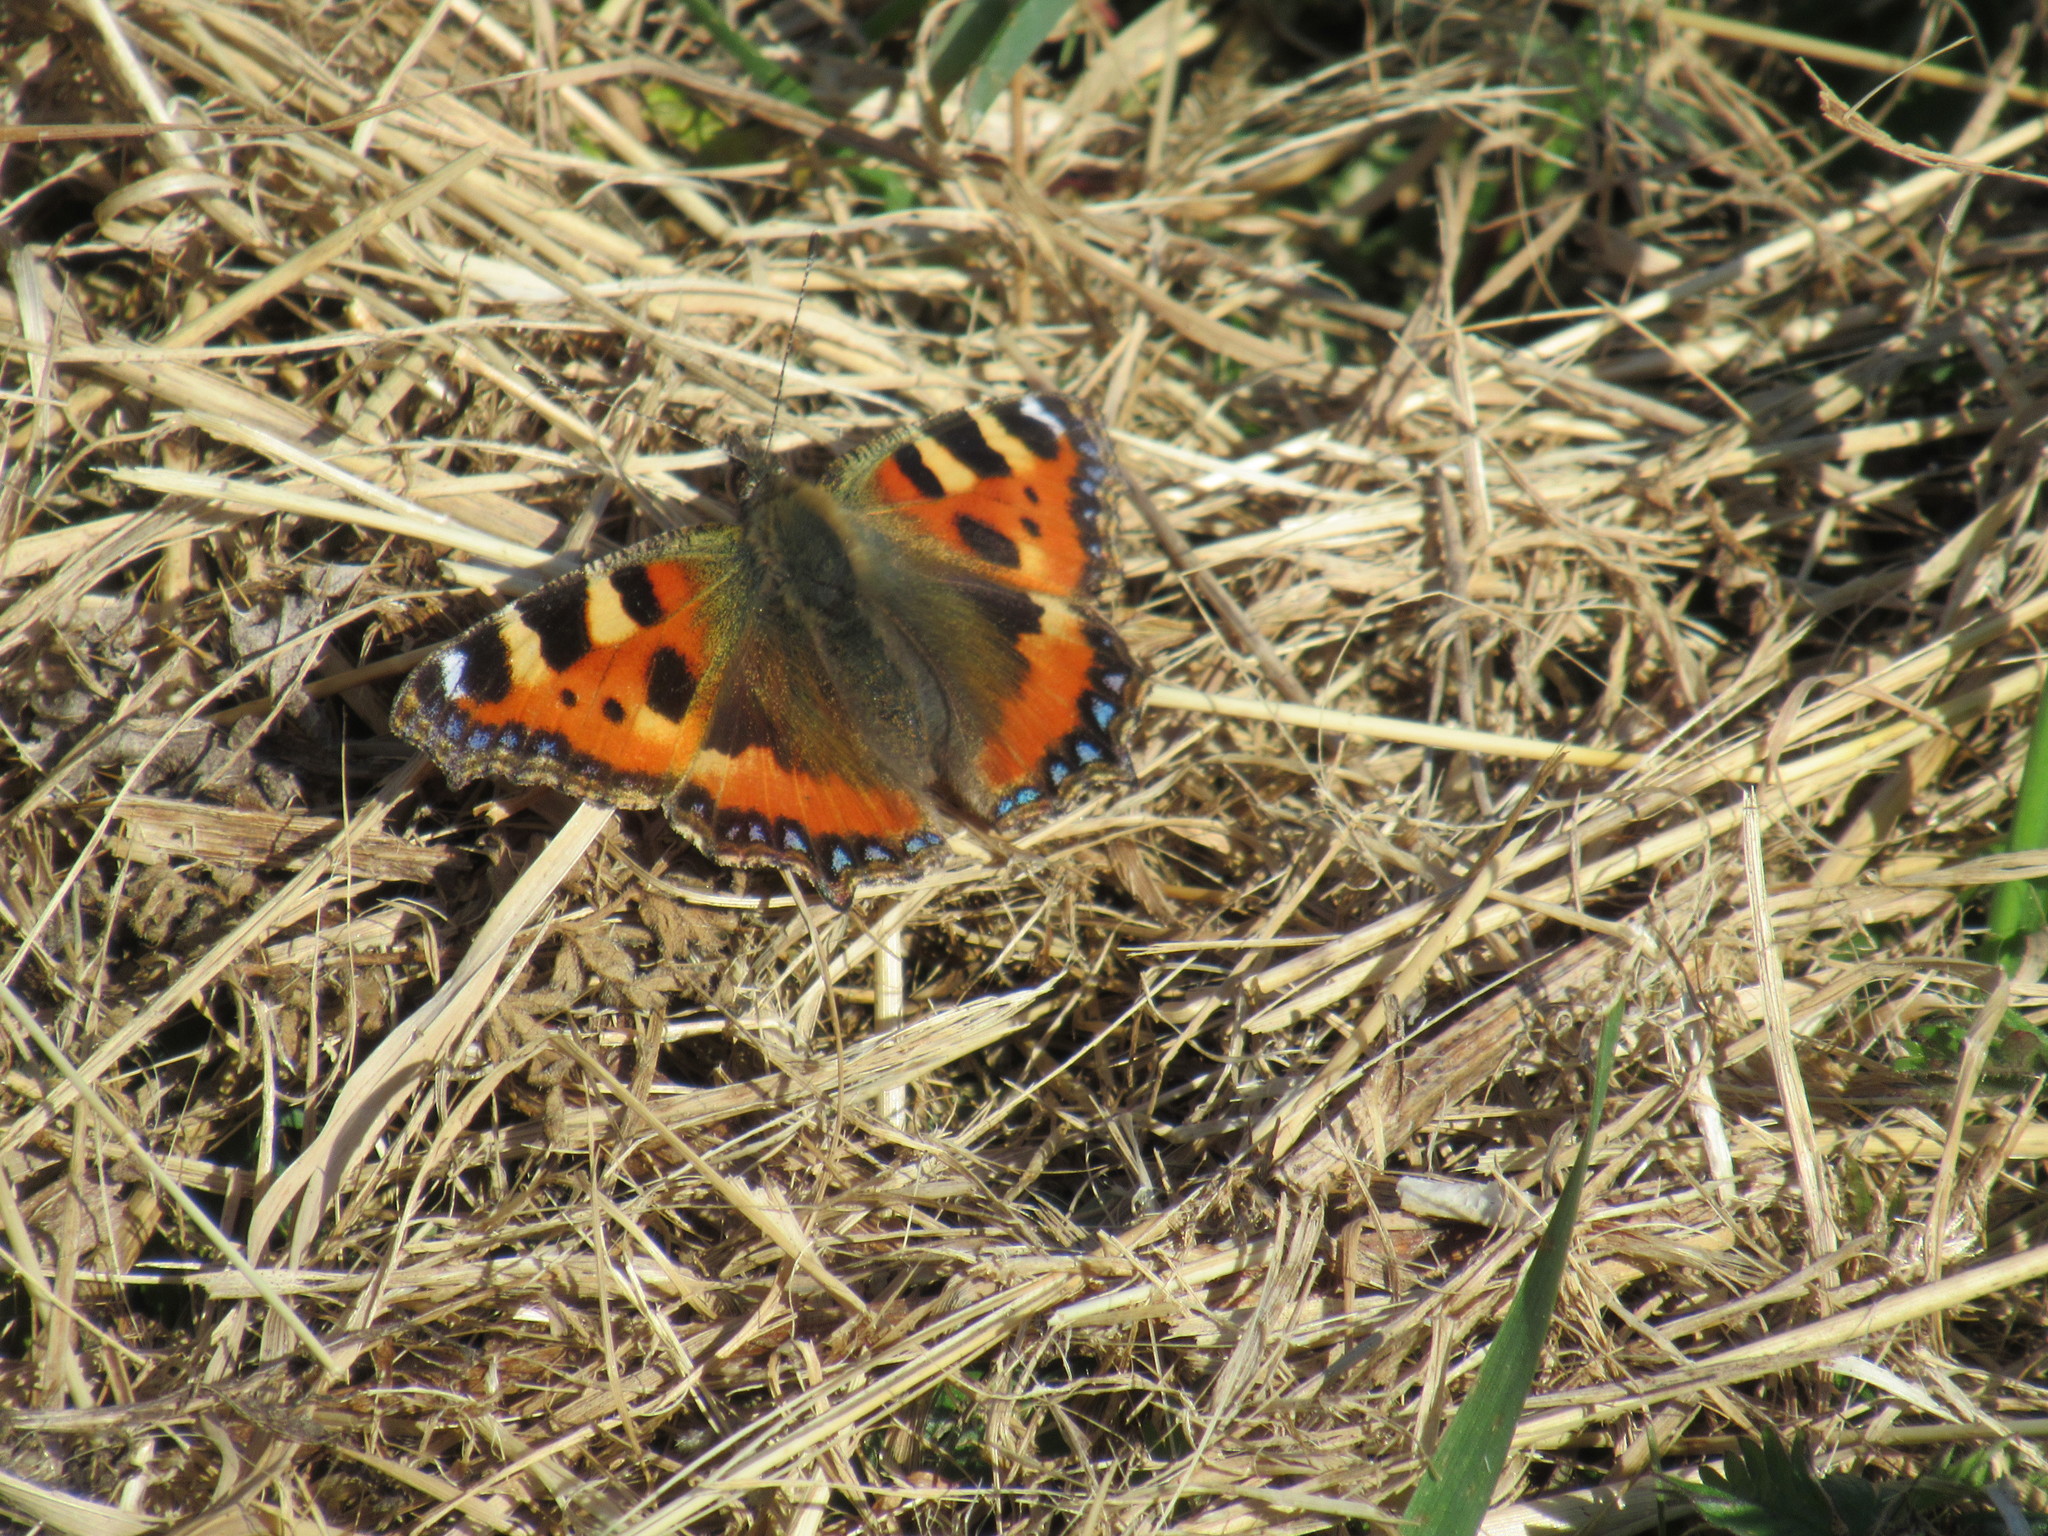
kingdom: Animalia
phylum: Arthropoda
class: Insecta
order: Lepidoptera
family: Nymphalidae
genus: Aglais
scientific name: Aglais urticae
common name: Small tortoiseshell
